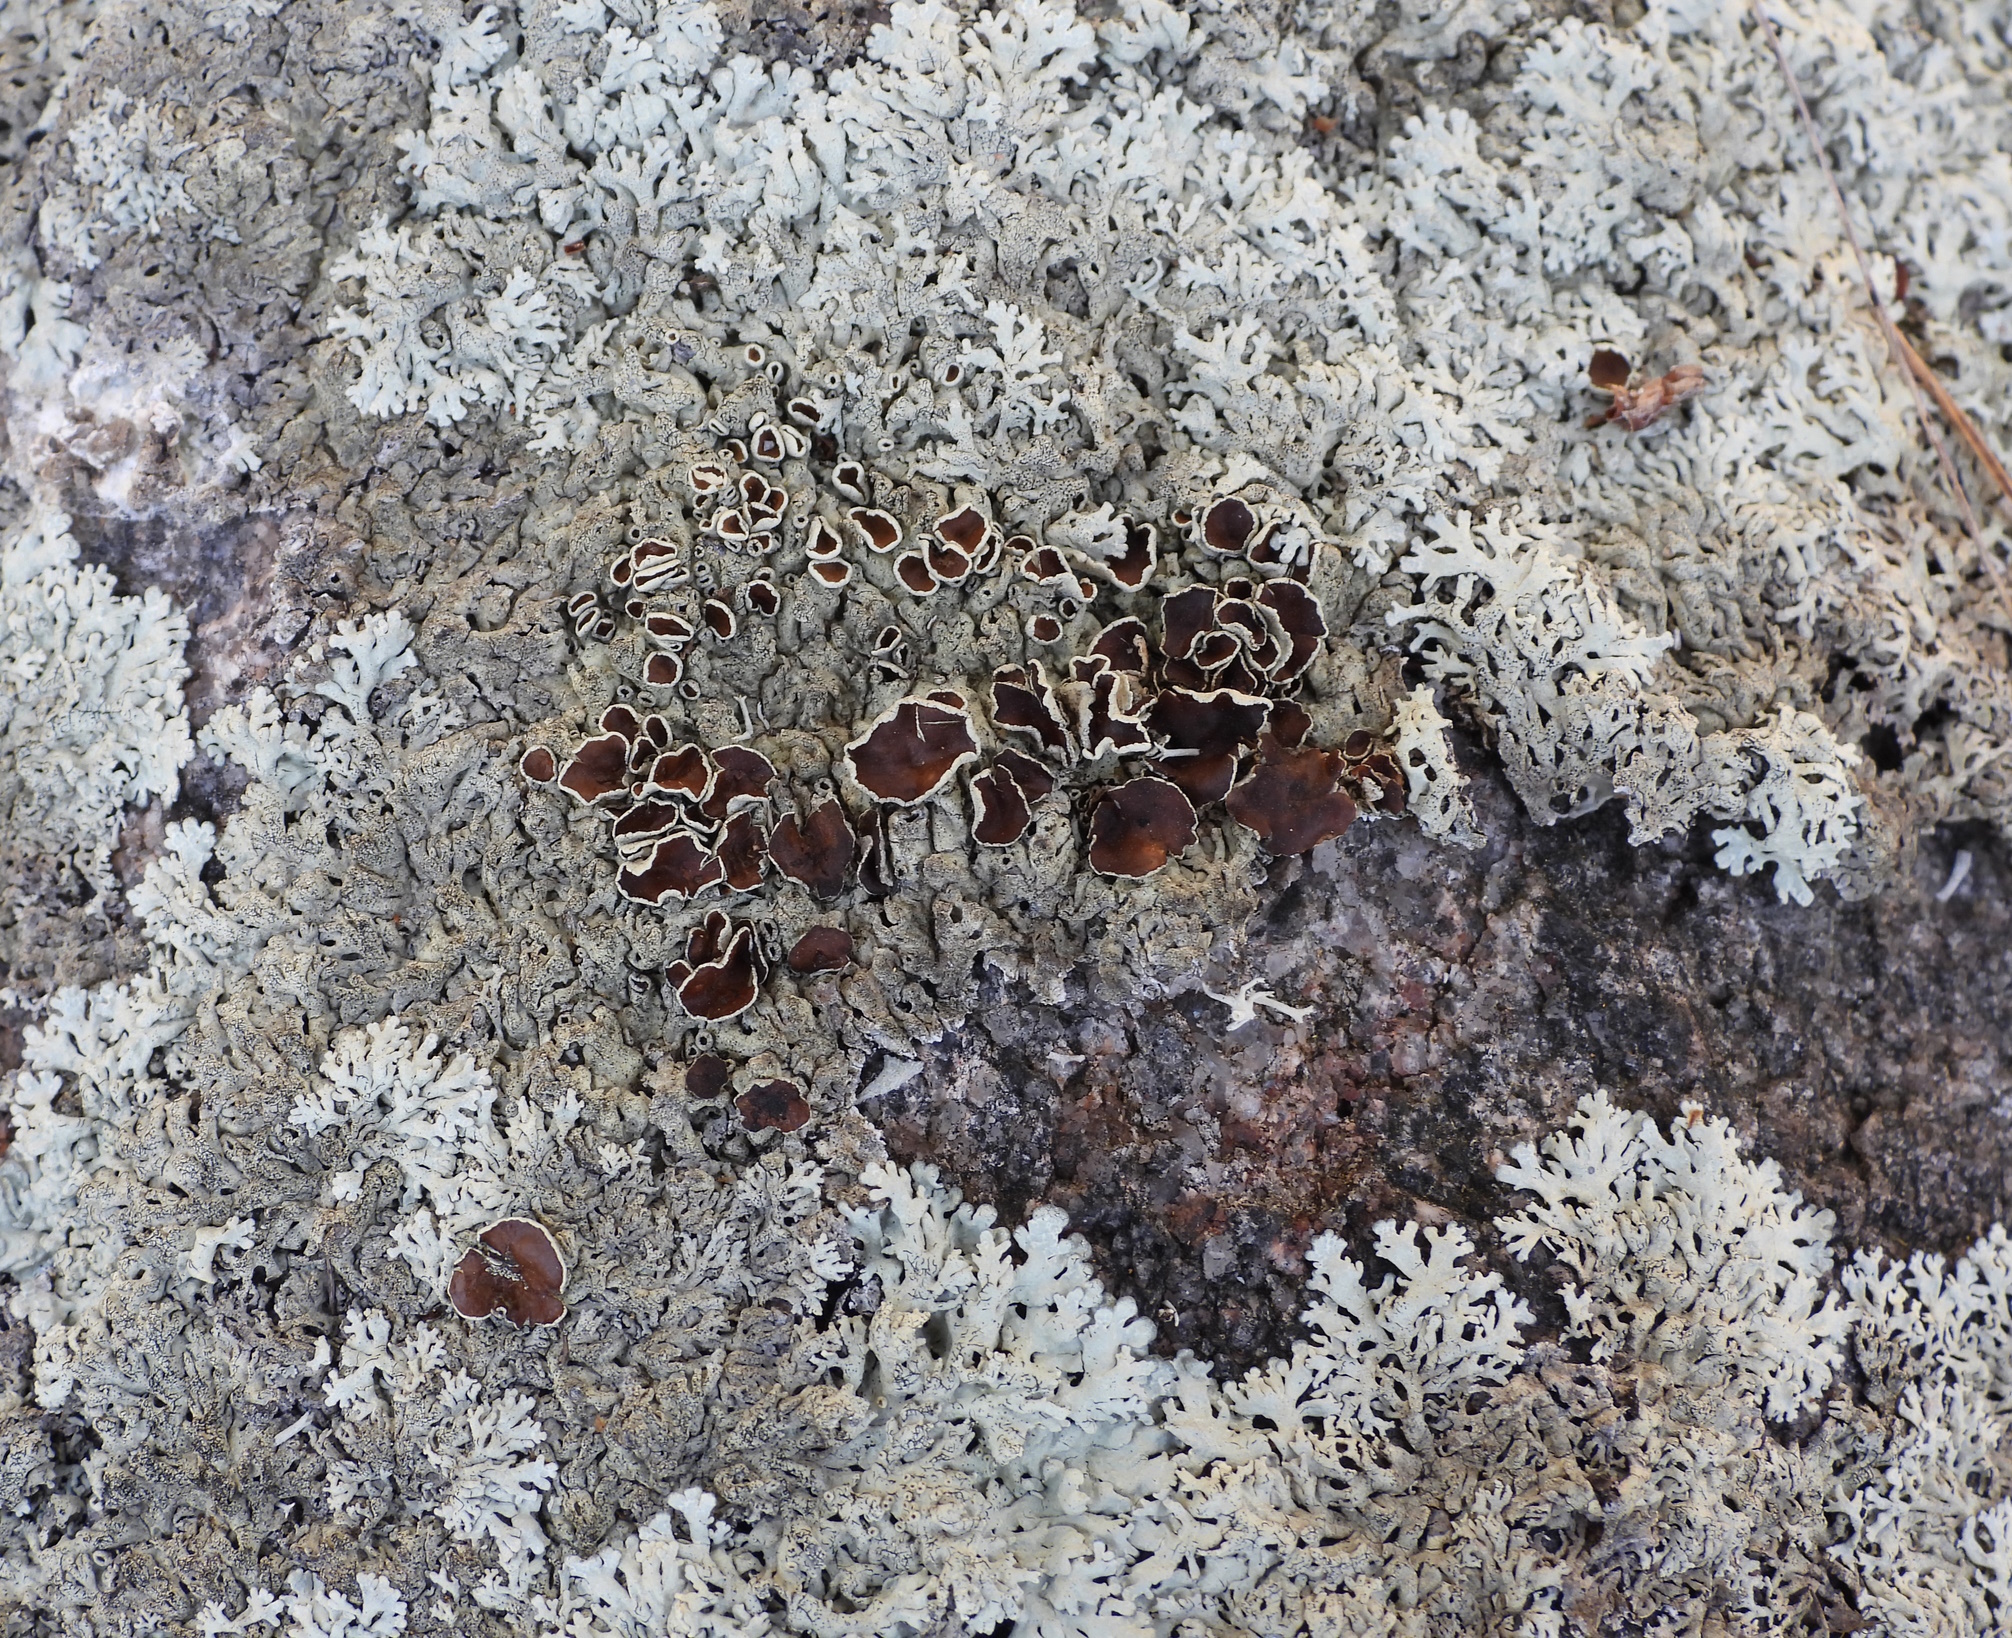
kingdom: Fungi
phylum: Ascomycota
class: Lecanoromycetes
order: Lecanorales
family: Parmeliaceae
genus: Arctoparmelia
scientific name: Arctoparmelia centrifuga
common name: Concentric ring lichen
